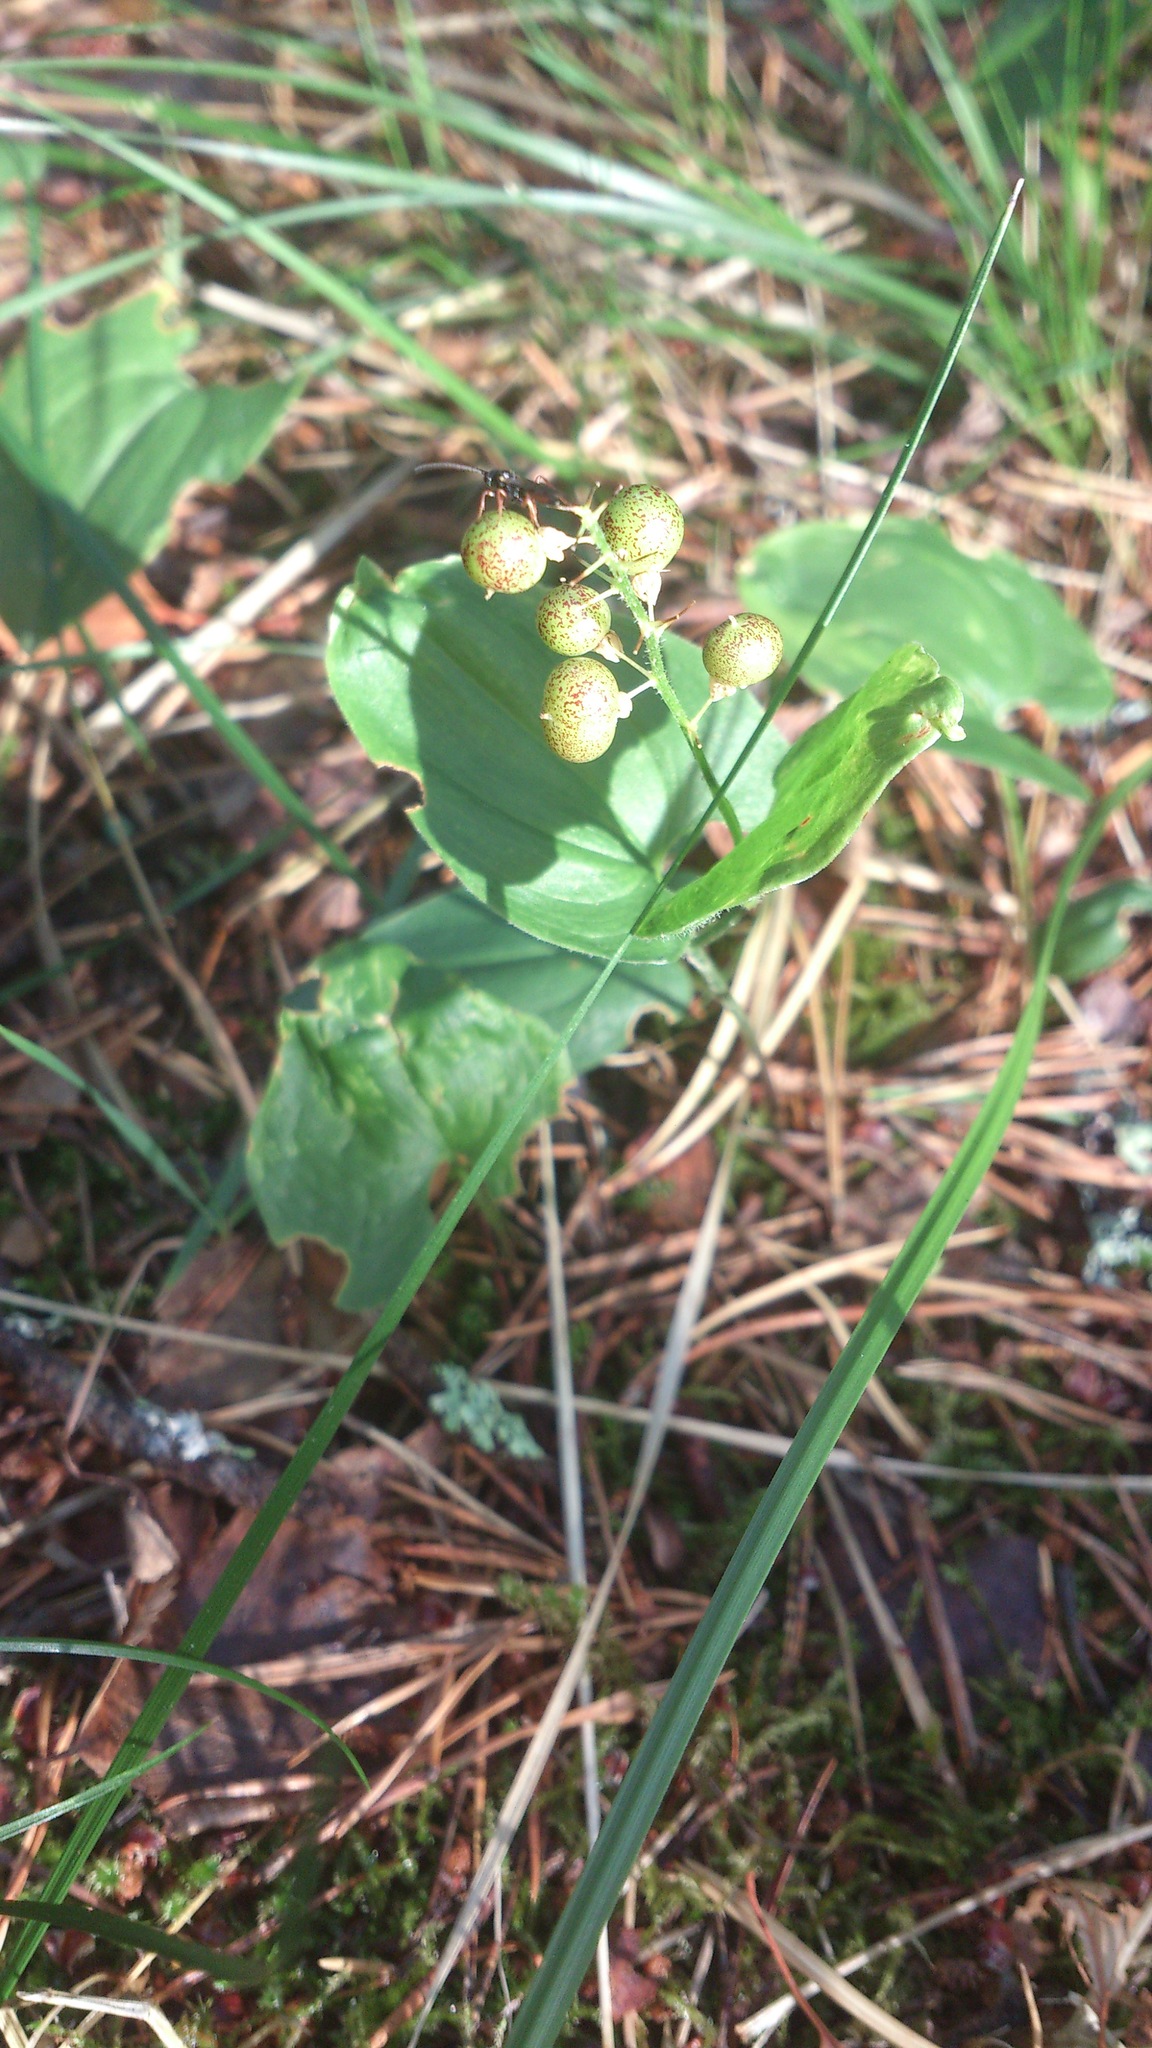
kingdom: Plantae
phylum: Tracheophyta
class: Liliopsida
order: Asparagales
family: Asparagaceae
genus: Maianthemum
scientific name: Maianthemum bifolium
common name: May lily
